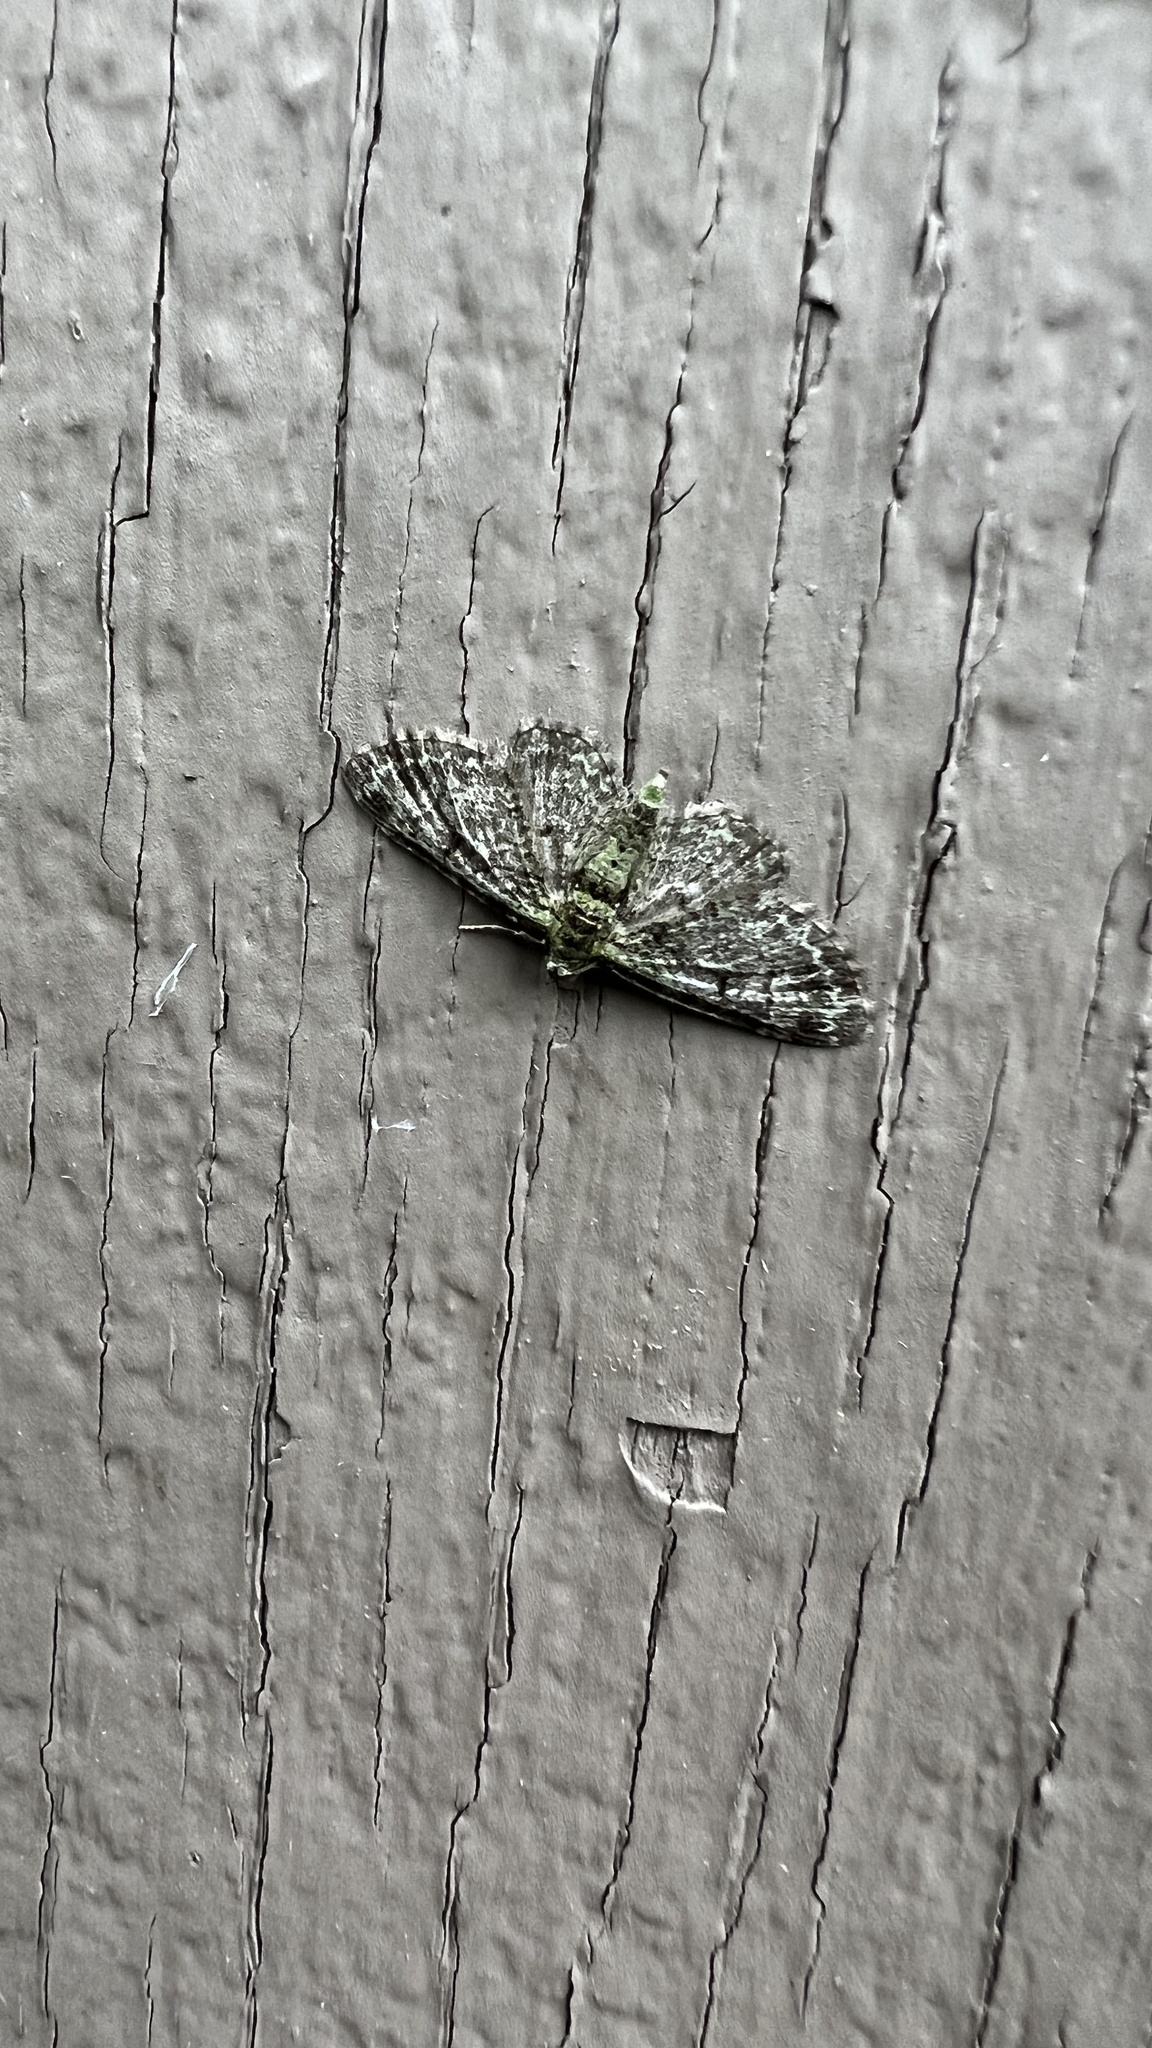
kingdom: Animalia
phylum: Arthropoda
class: Insecta
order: Lepidoptera
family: Geometridae
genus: Pasiphila
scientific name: Pasiphila rectangulata
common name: Green pug
